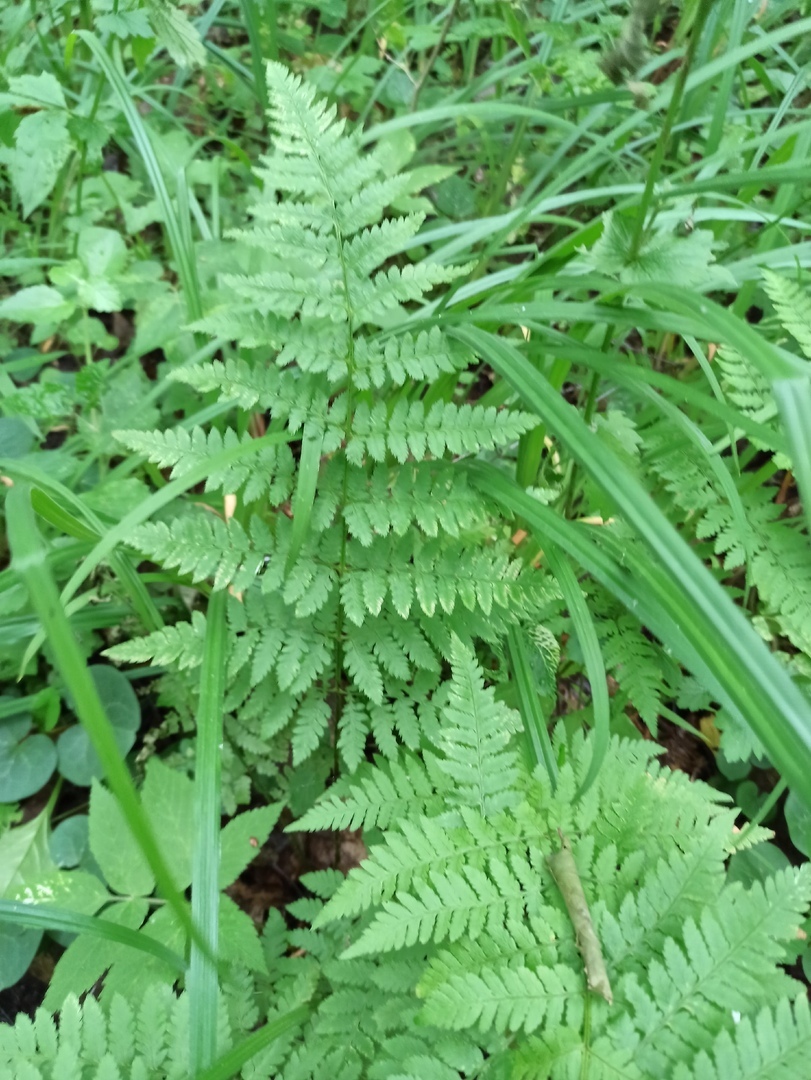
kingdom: Plantae
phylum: Tracheophyta
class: Polypodiopsida
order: Polypodiales
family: Dryopteridaceae
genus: Dryopteris
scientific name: Dryopteris carthusiana
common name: Narrow buckler-fern
